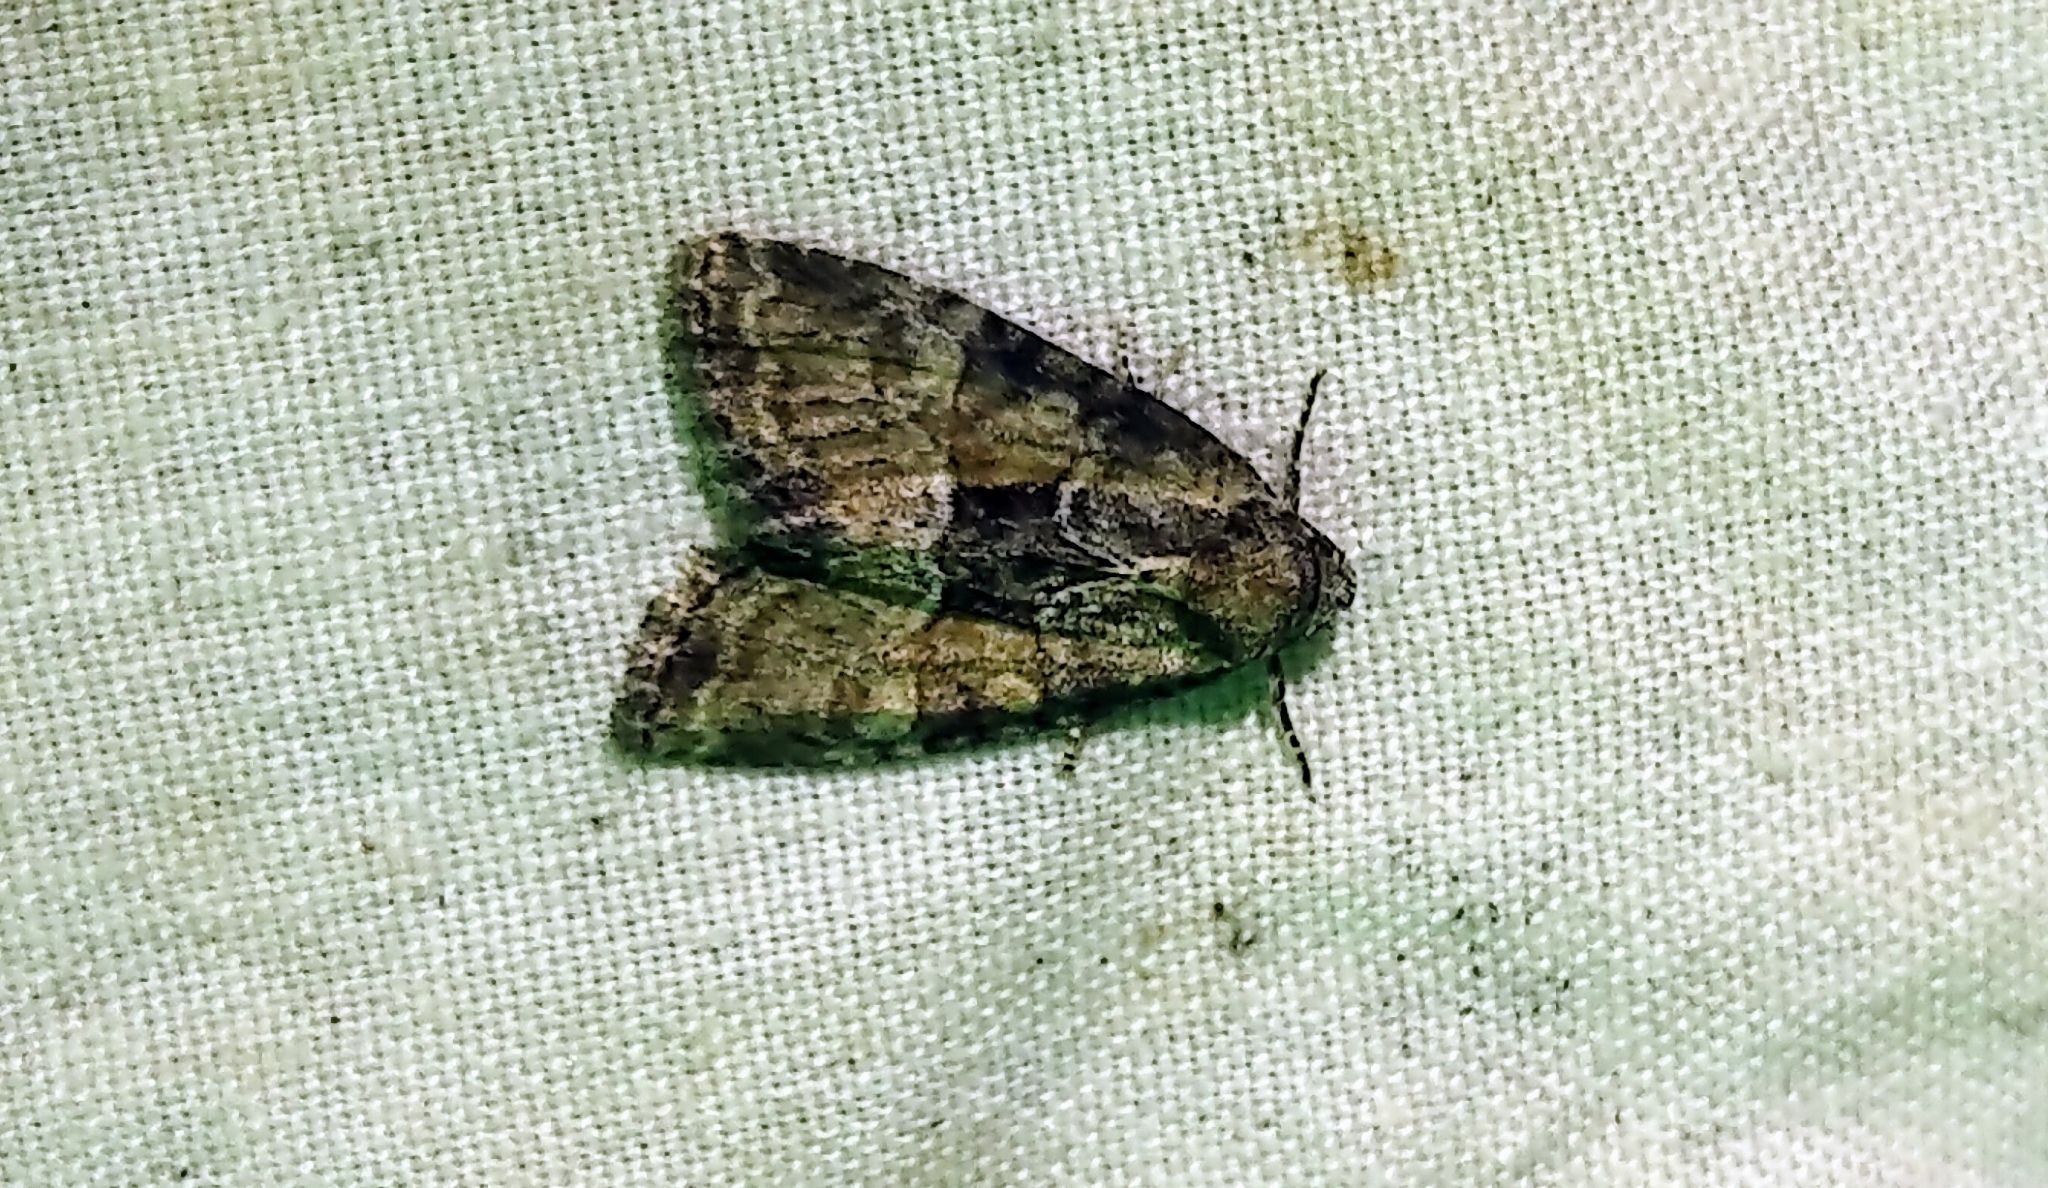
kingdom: Animalia
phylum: Arthropoda
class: Insecta
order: Lepidoptera
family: Noctuidae
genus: Chytonix
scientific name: Chytonix palliatricula
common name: Cloaked marvel
